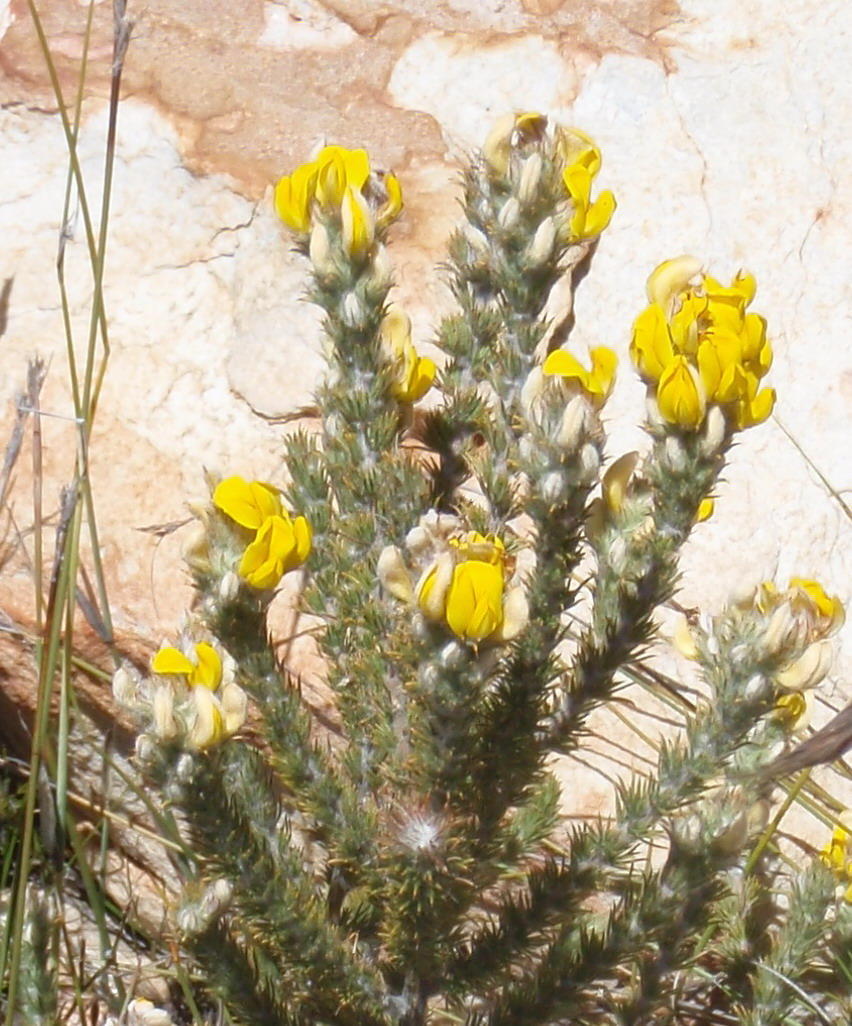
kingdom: Plantae
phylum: Tracheophyta
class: Magnoliopsida
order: Fabales
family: Fabaceae
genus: Aspalathus
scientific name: Aspalathus shawii
